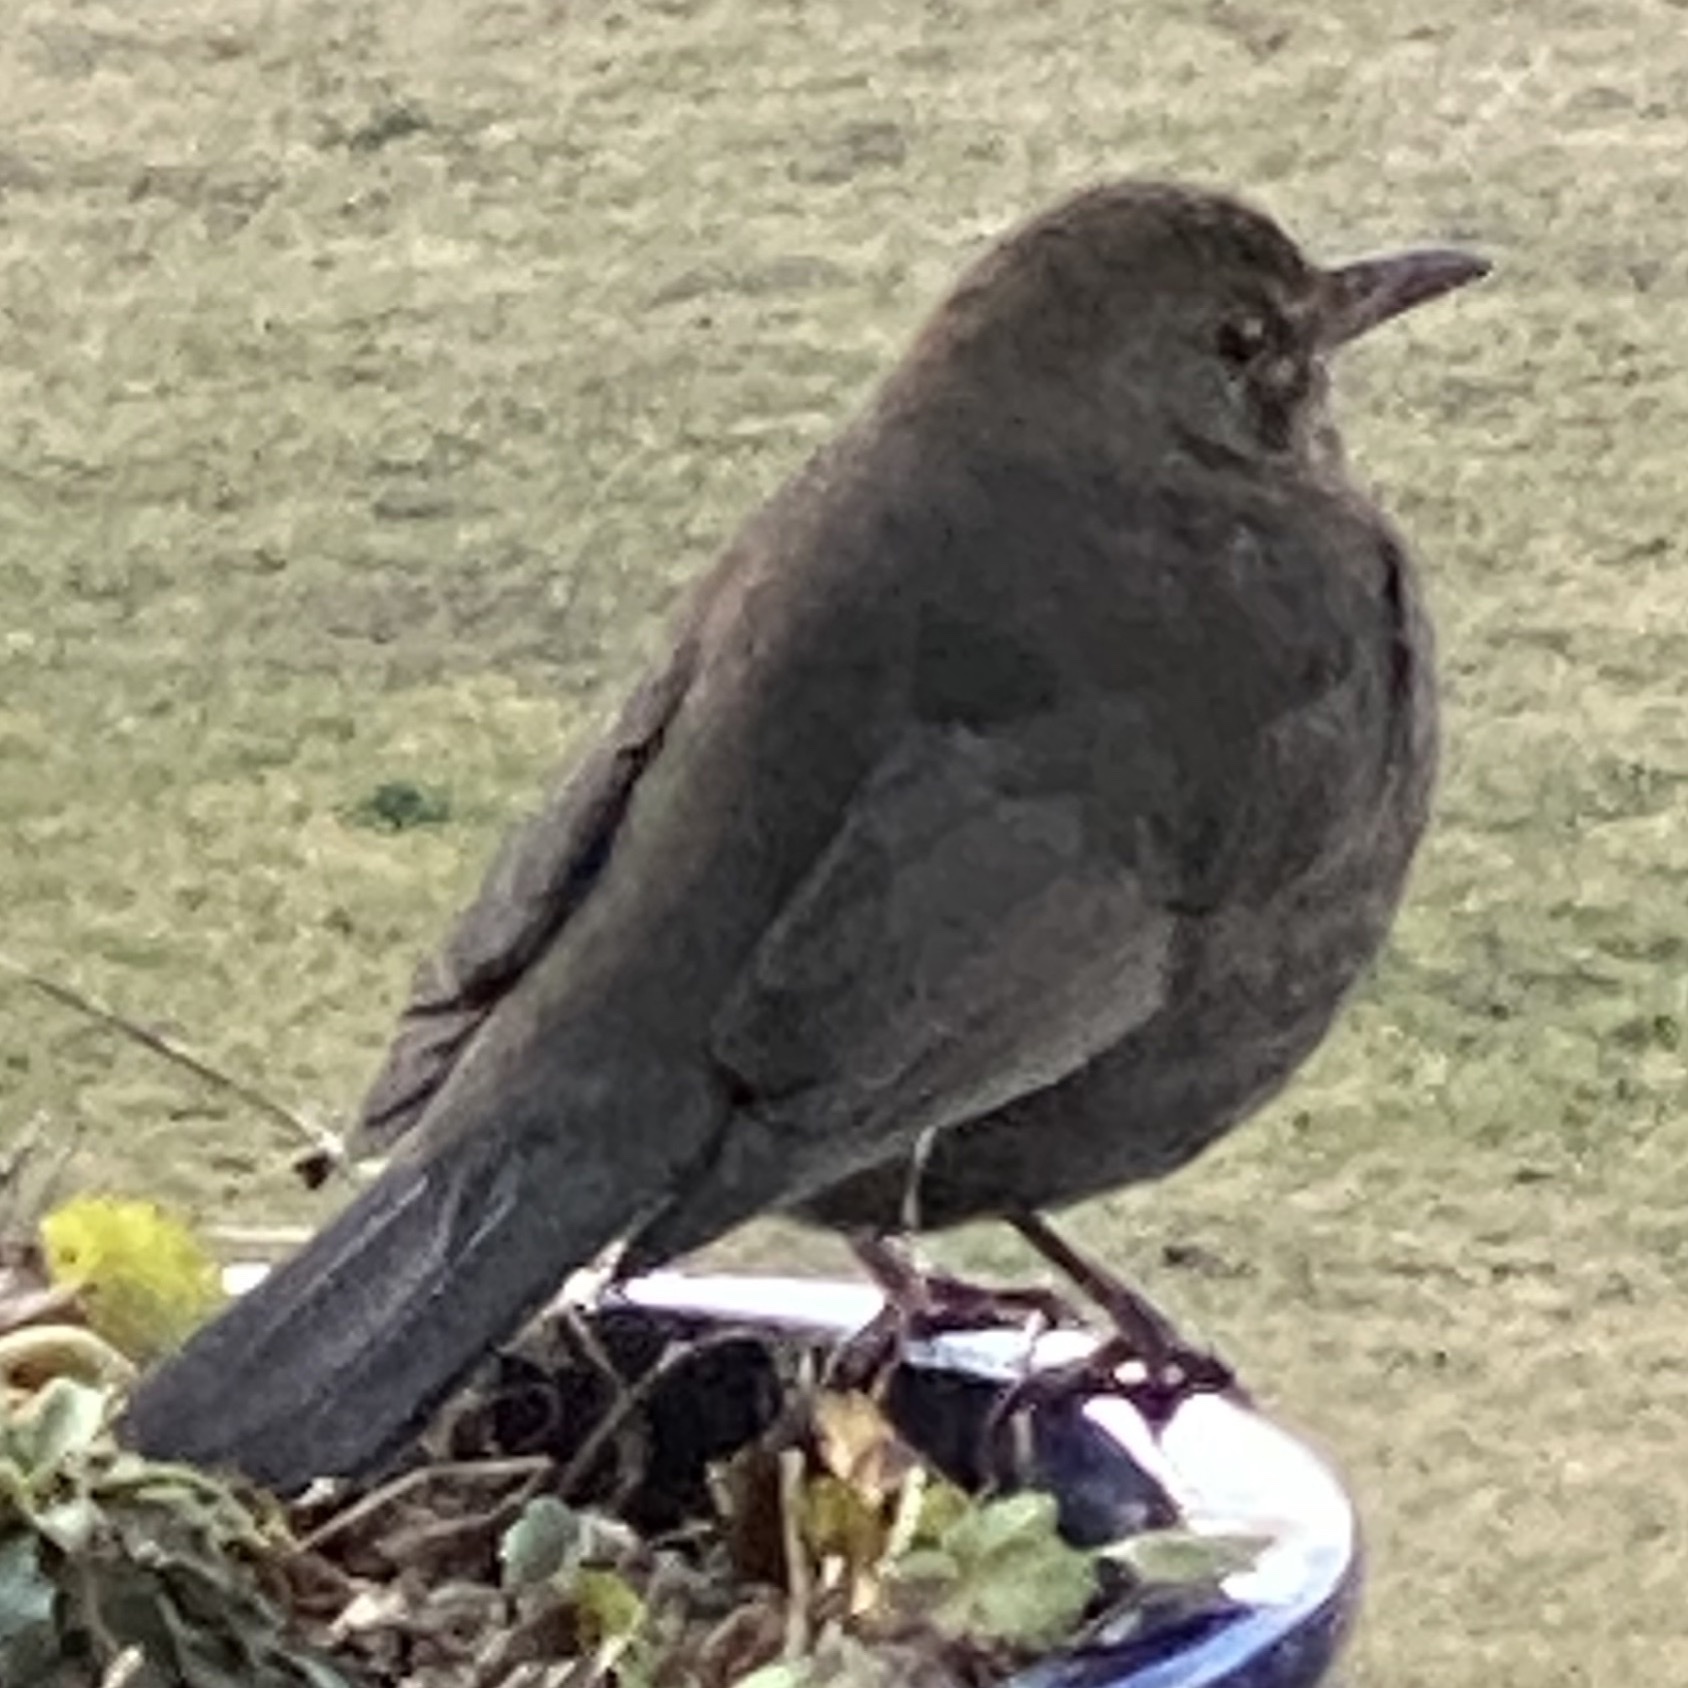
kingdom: Animalia
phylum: Chordata
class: Aves
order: Passeriformes
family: Turdidae
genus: Turdus
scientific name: Turdus merula
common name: Common blackbird
